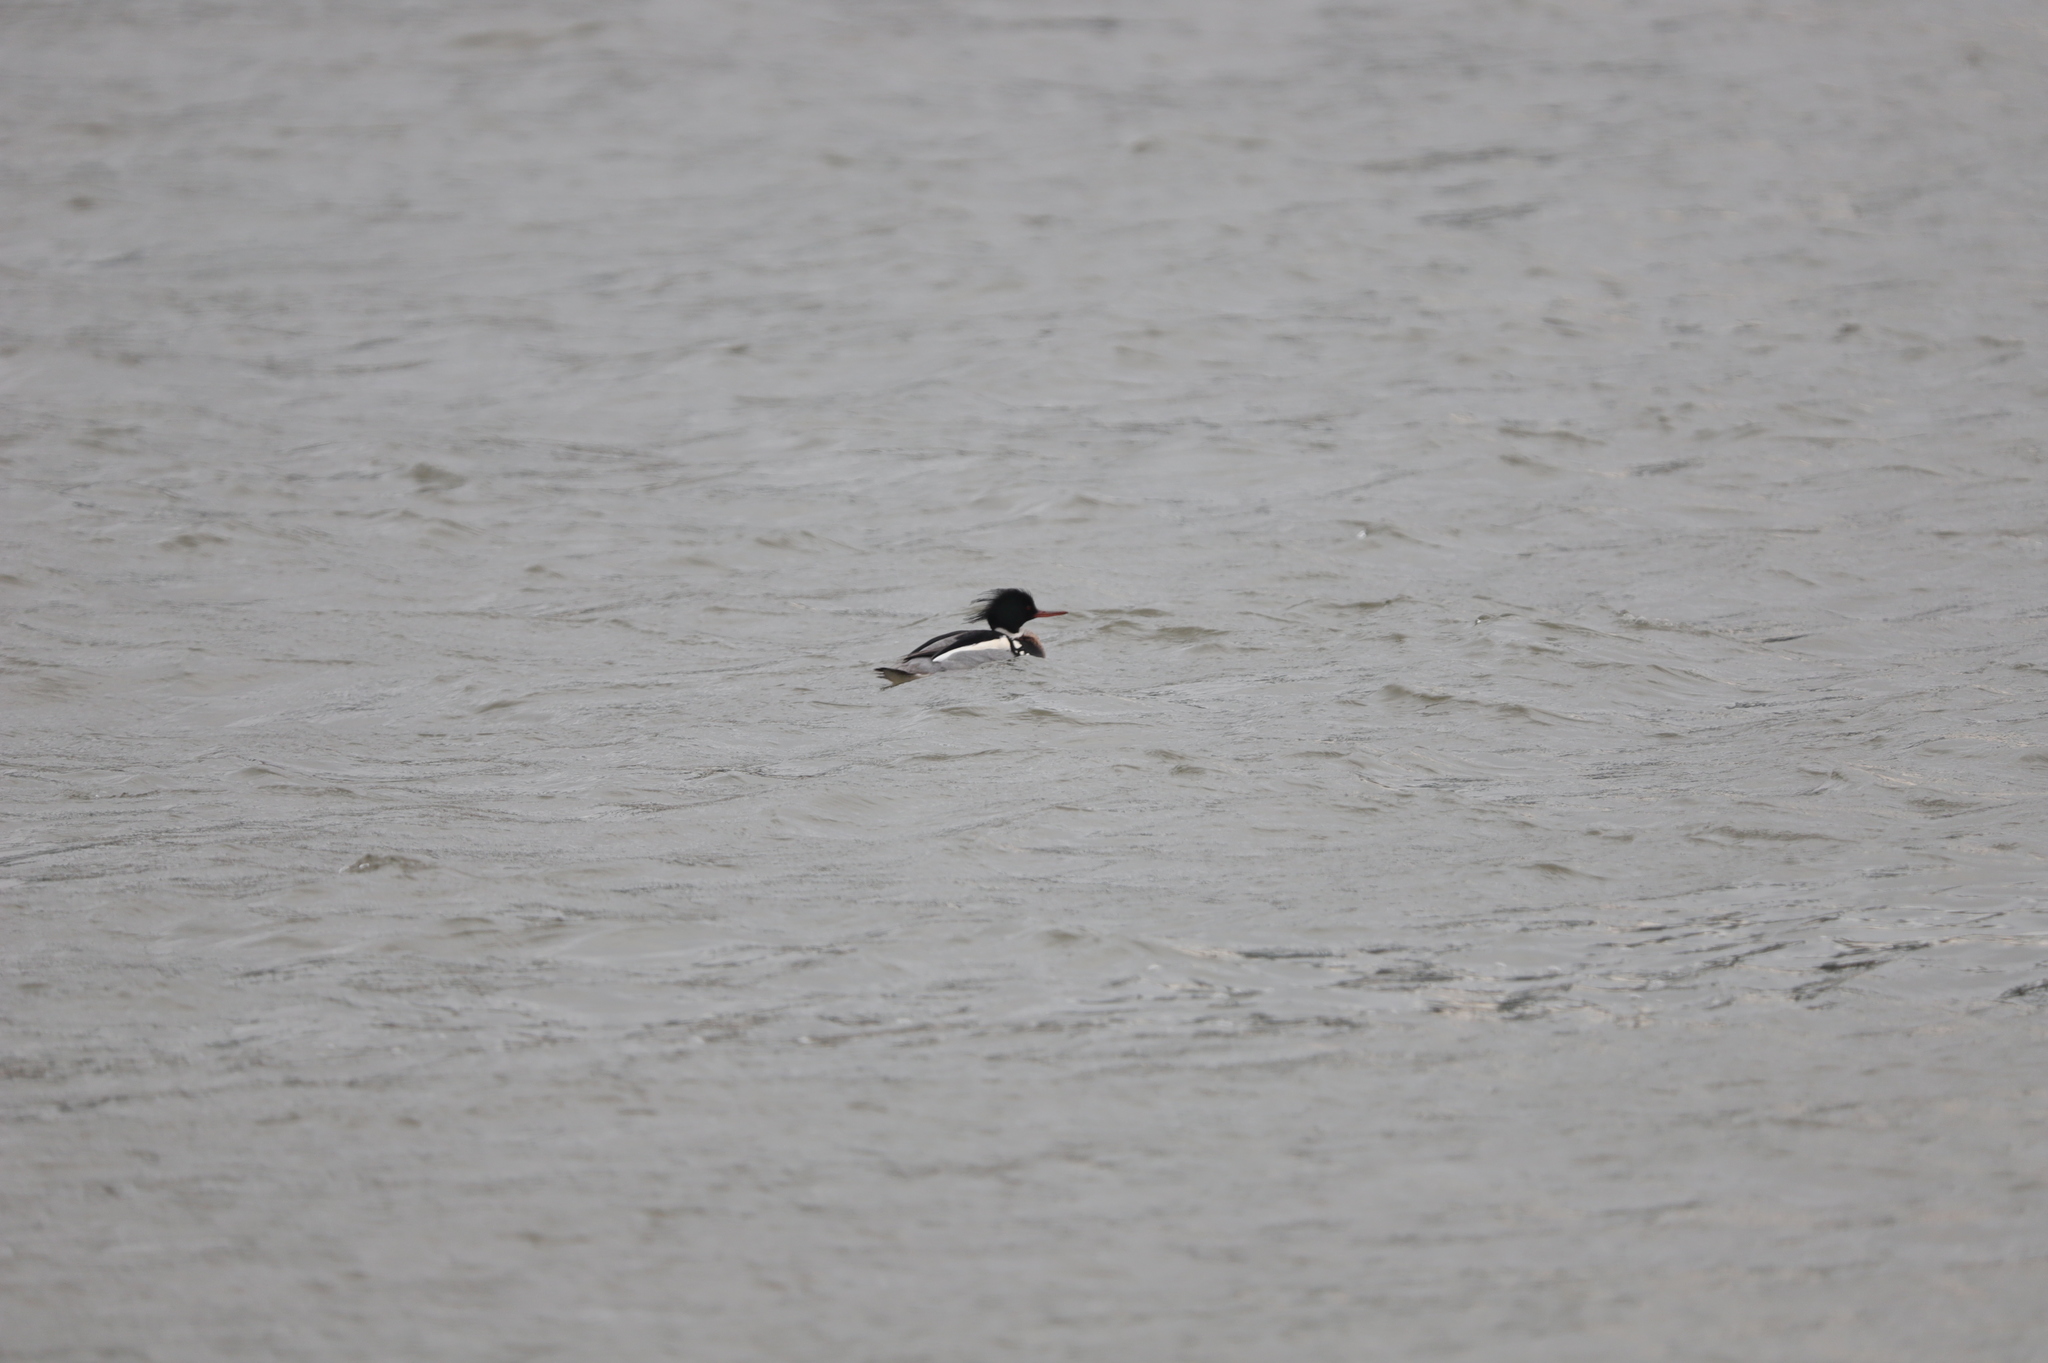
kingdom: Animalia
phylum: Chordata
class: Aves
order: Anseriformes
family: Anatidae
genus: Mergus
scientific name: Mergus serrator
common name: Red-breasted merganser
